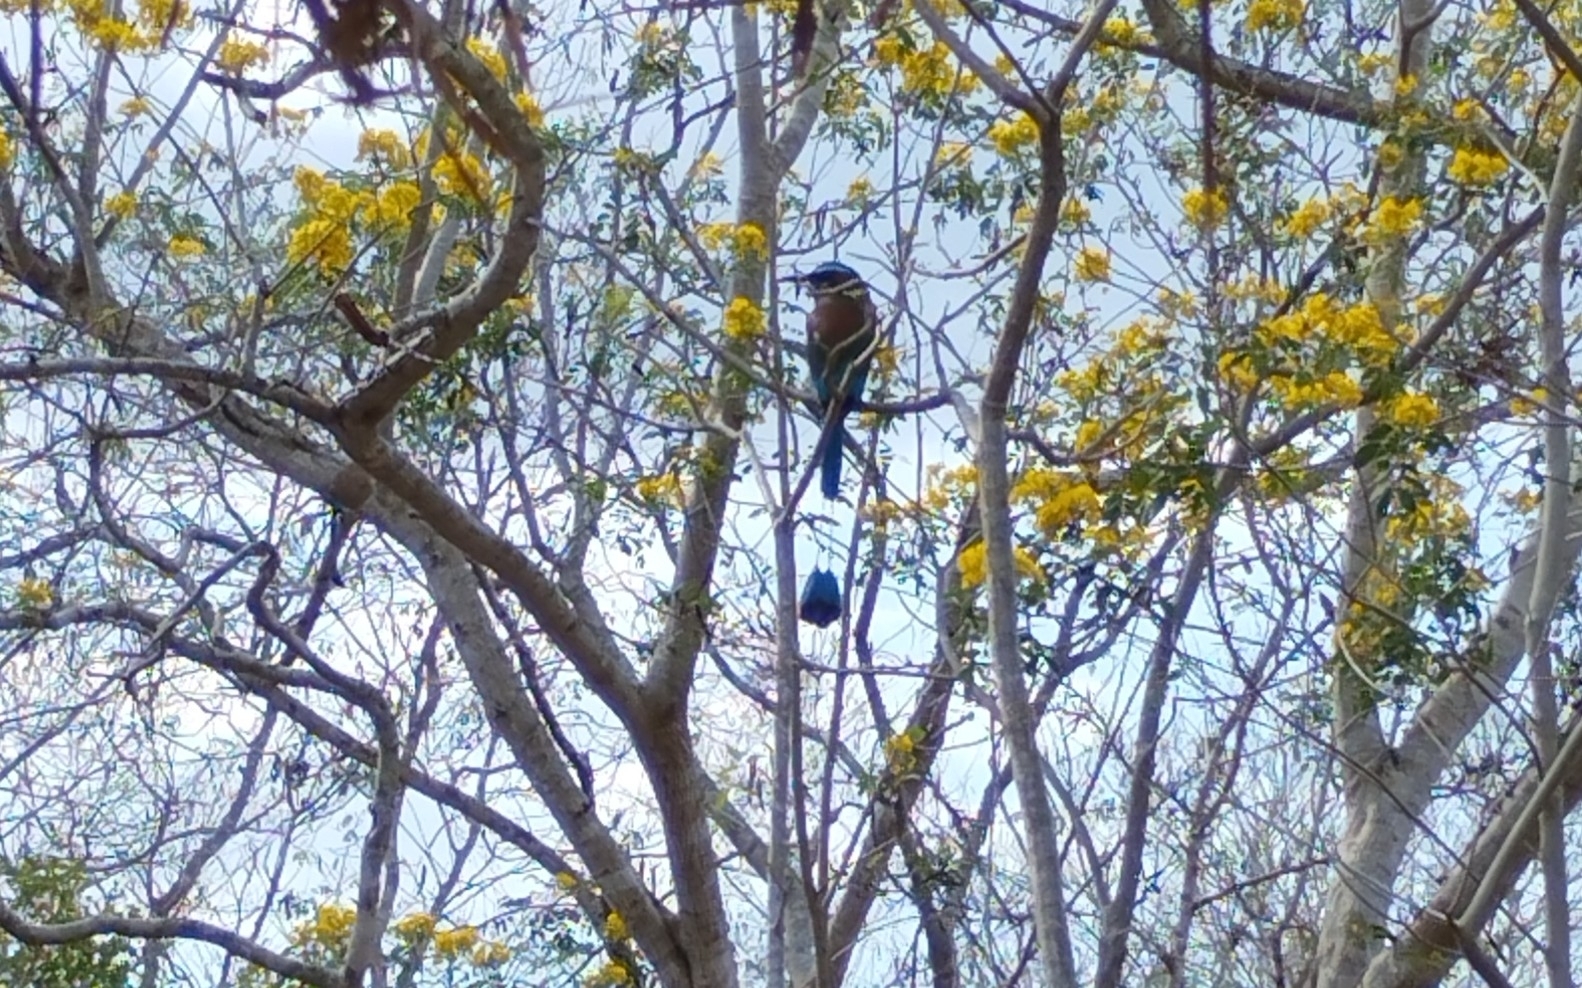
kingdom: Animalia
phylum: Chordata
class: Aves
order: Coraciiformes
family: Momotidae
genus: Eumomota
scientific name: Eumomota superciliosa
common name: Turquoise-browed motmot
